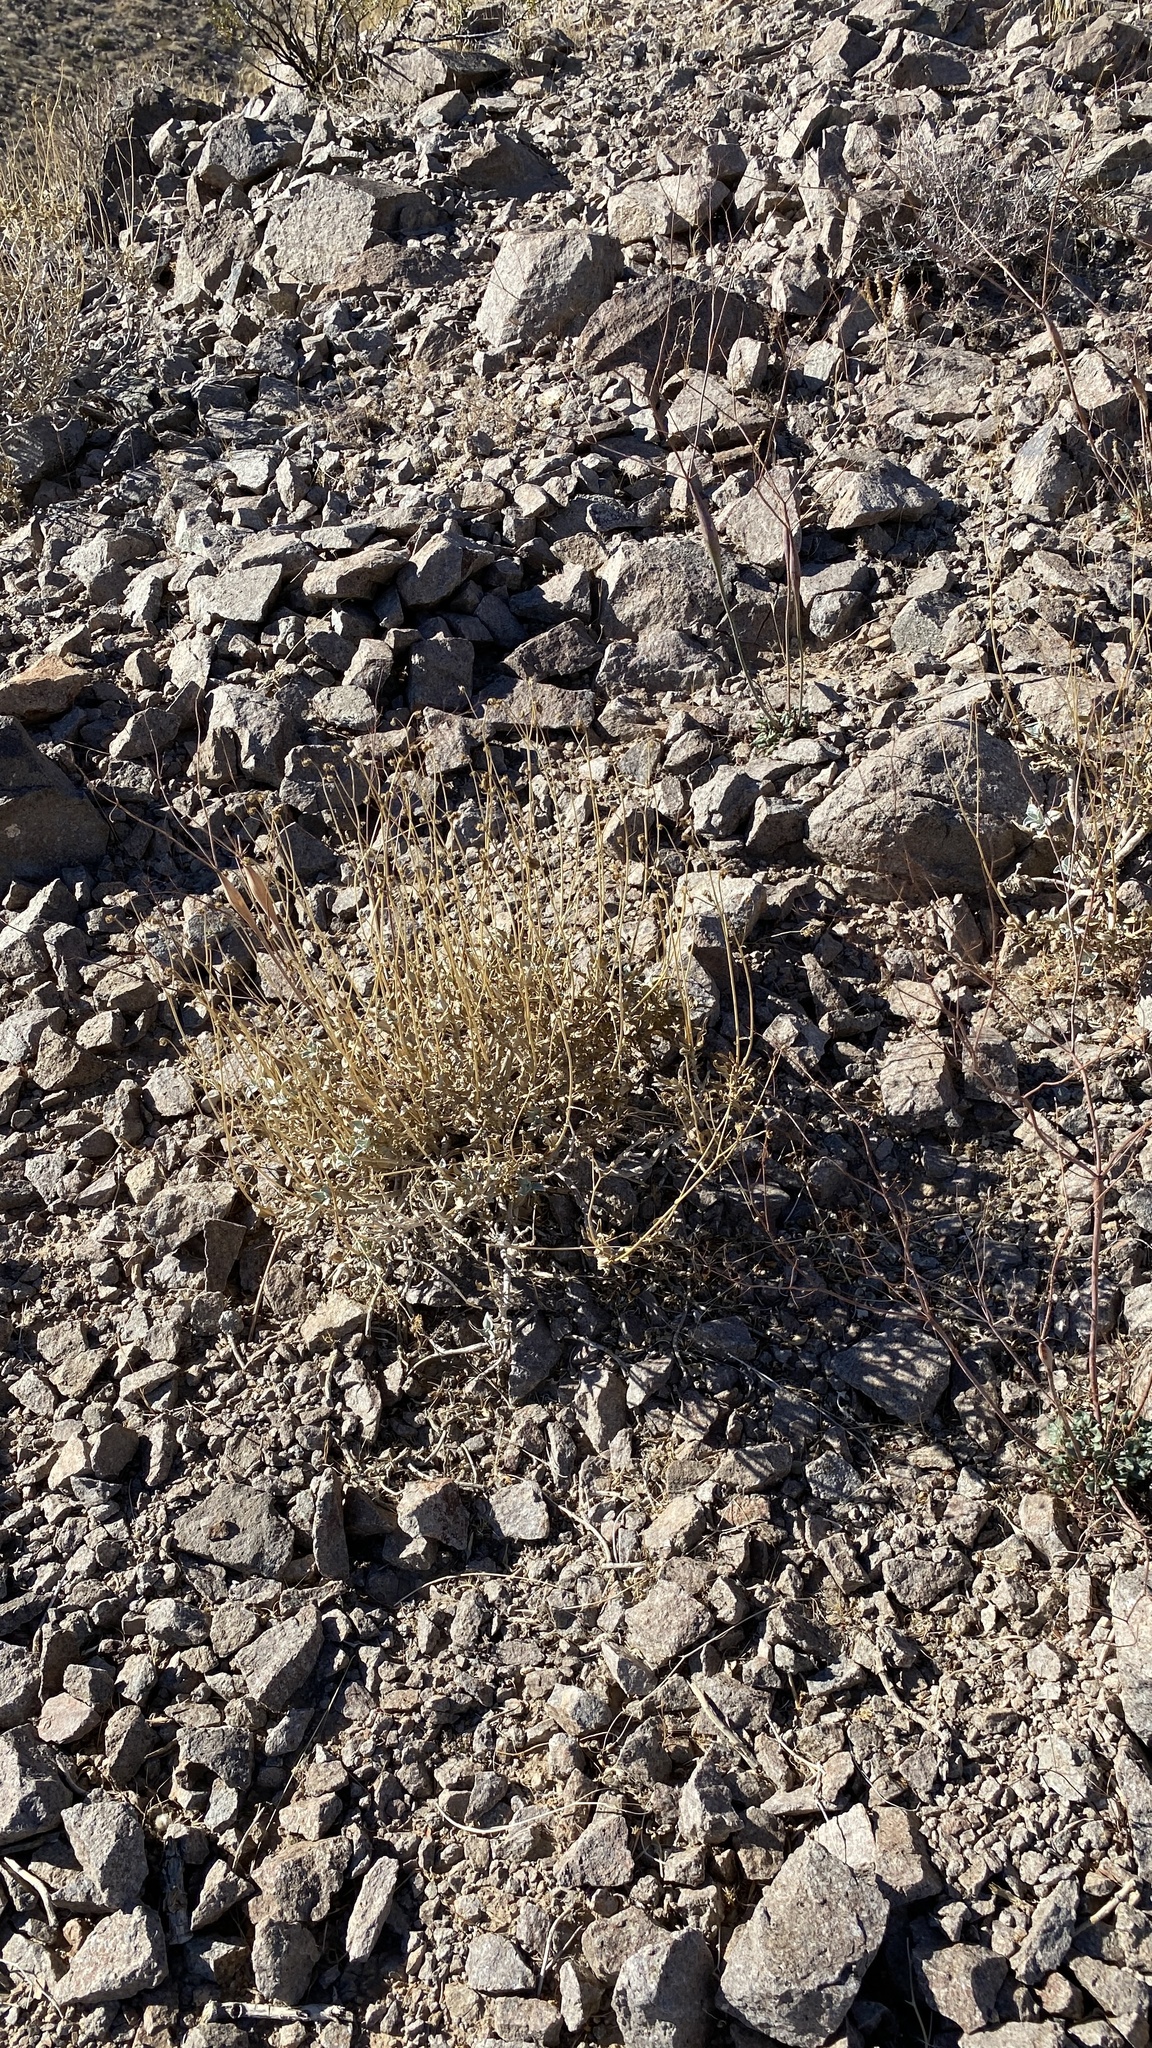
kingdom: Plantae
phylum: Tracheophyta
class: Magnoliopsida
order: Asterales
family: Asteraceae
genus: Encelia
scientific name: Encelia farinosa
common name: Brittlebush
